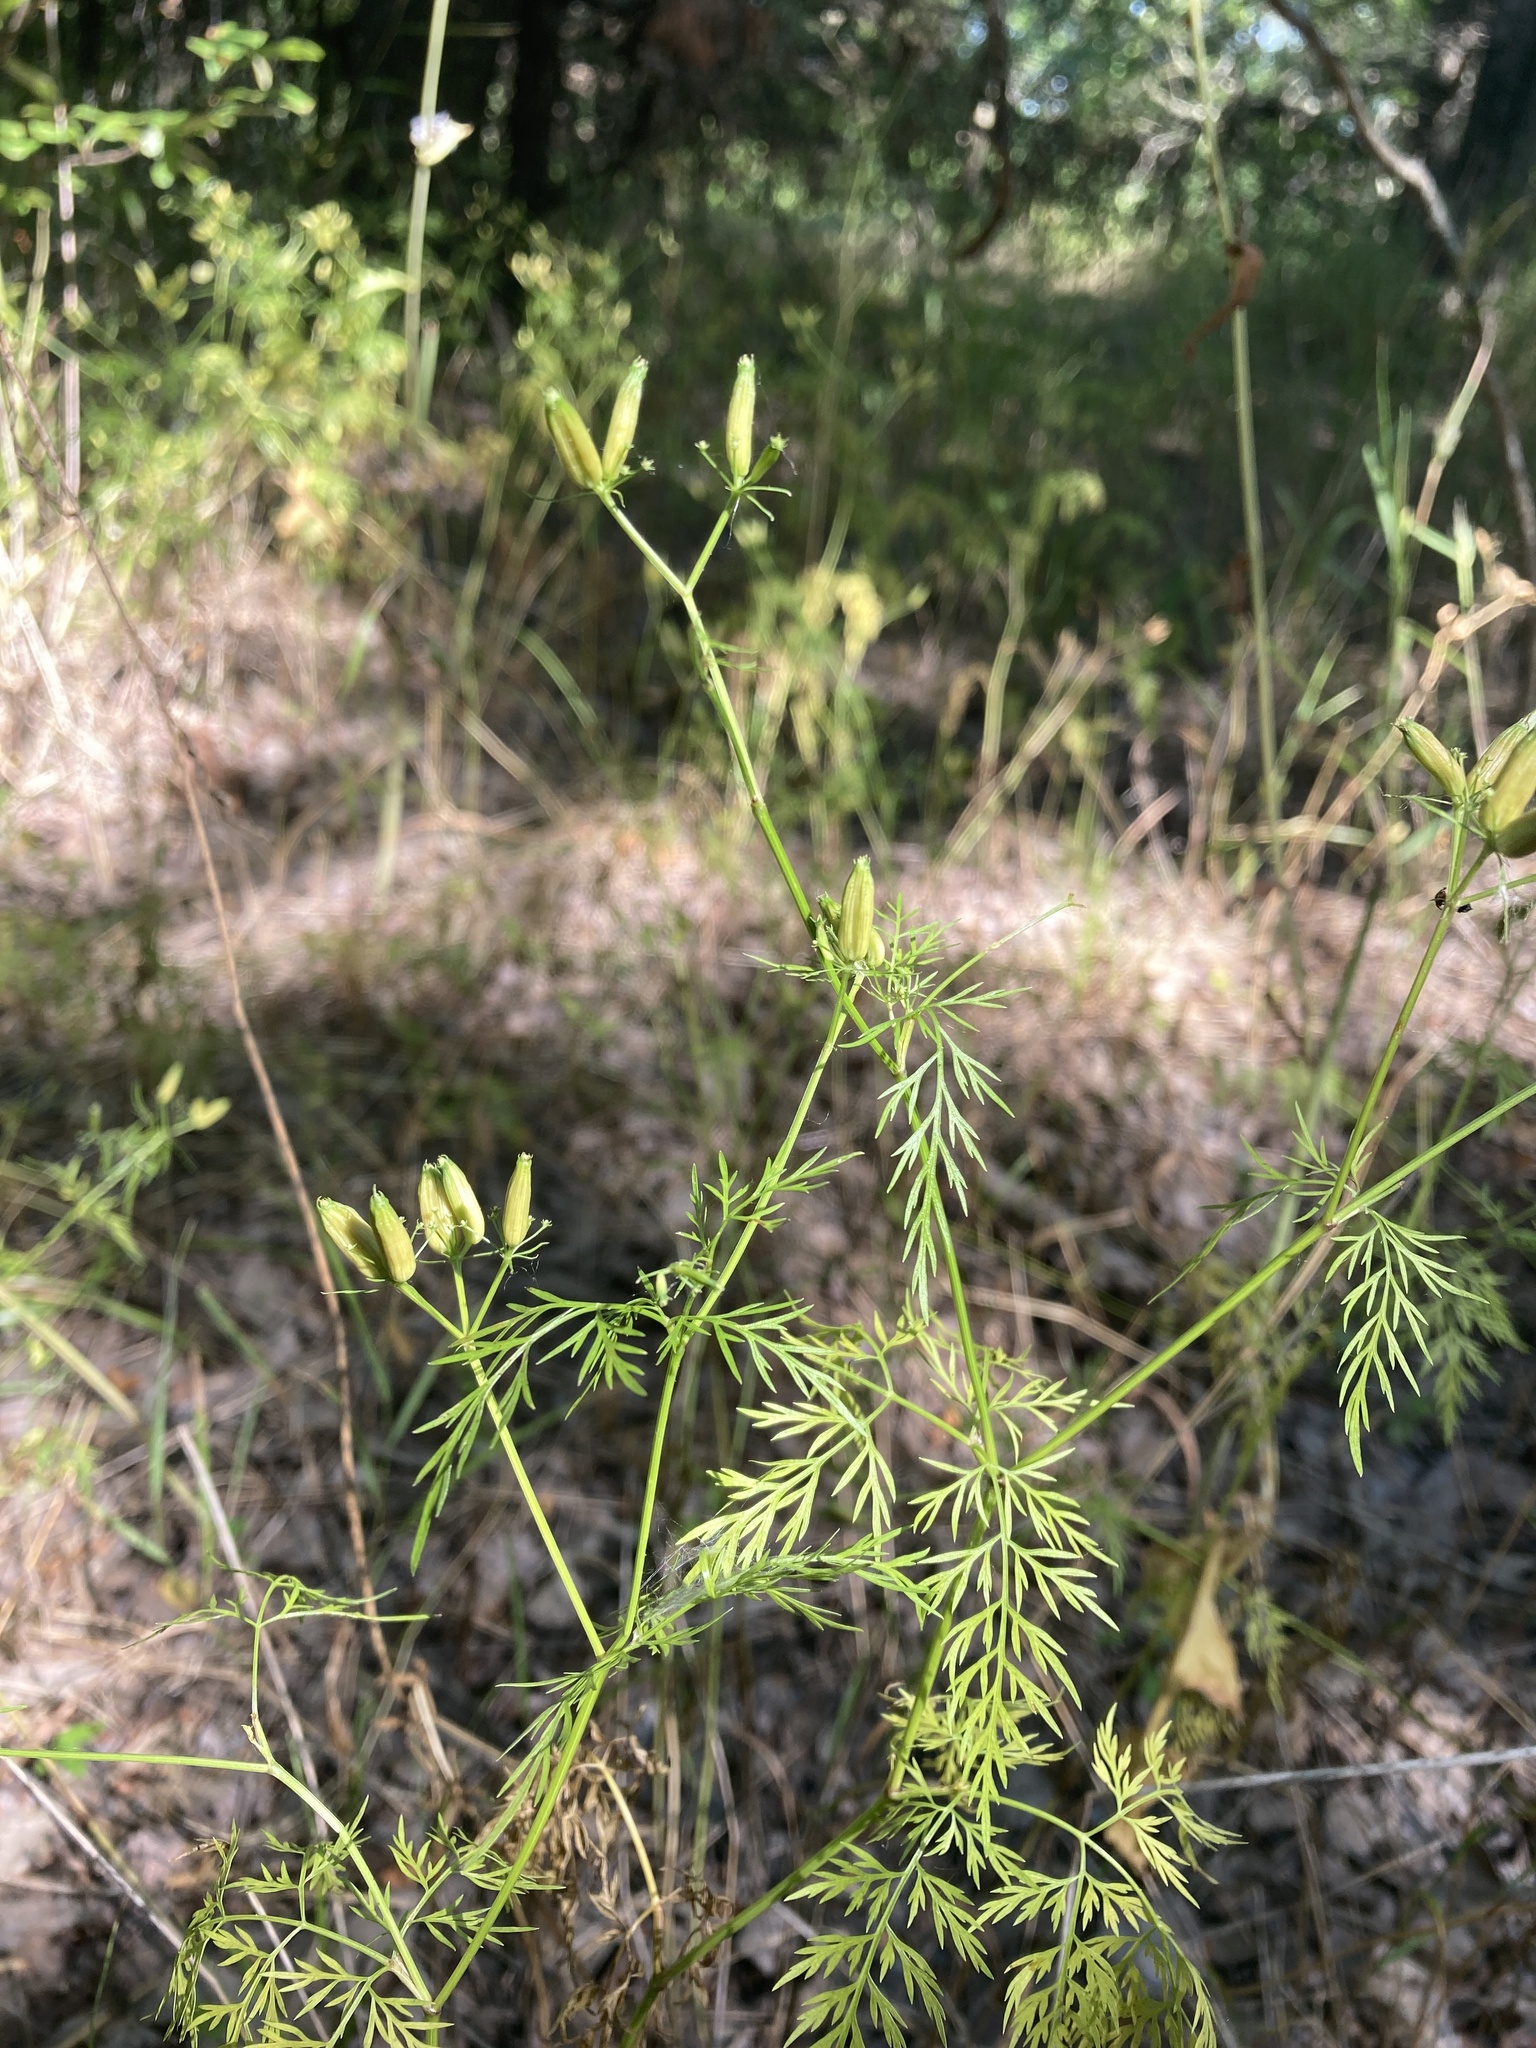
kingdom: Plantae
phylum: Tracheophyta
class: Magnoliopsida
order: Apiales
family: Apiaceae
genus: Trepocarpus
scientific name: Trepocarpus aethusae
